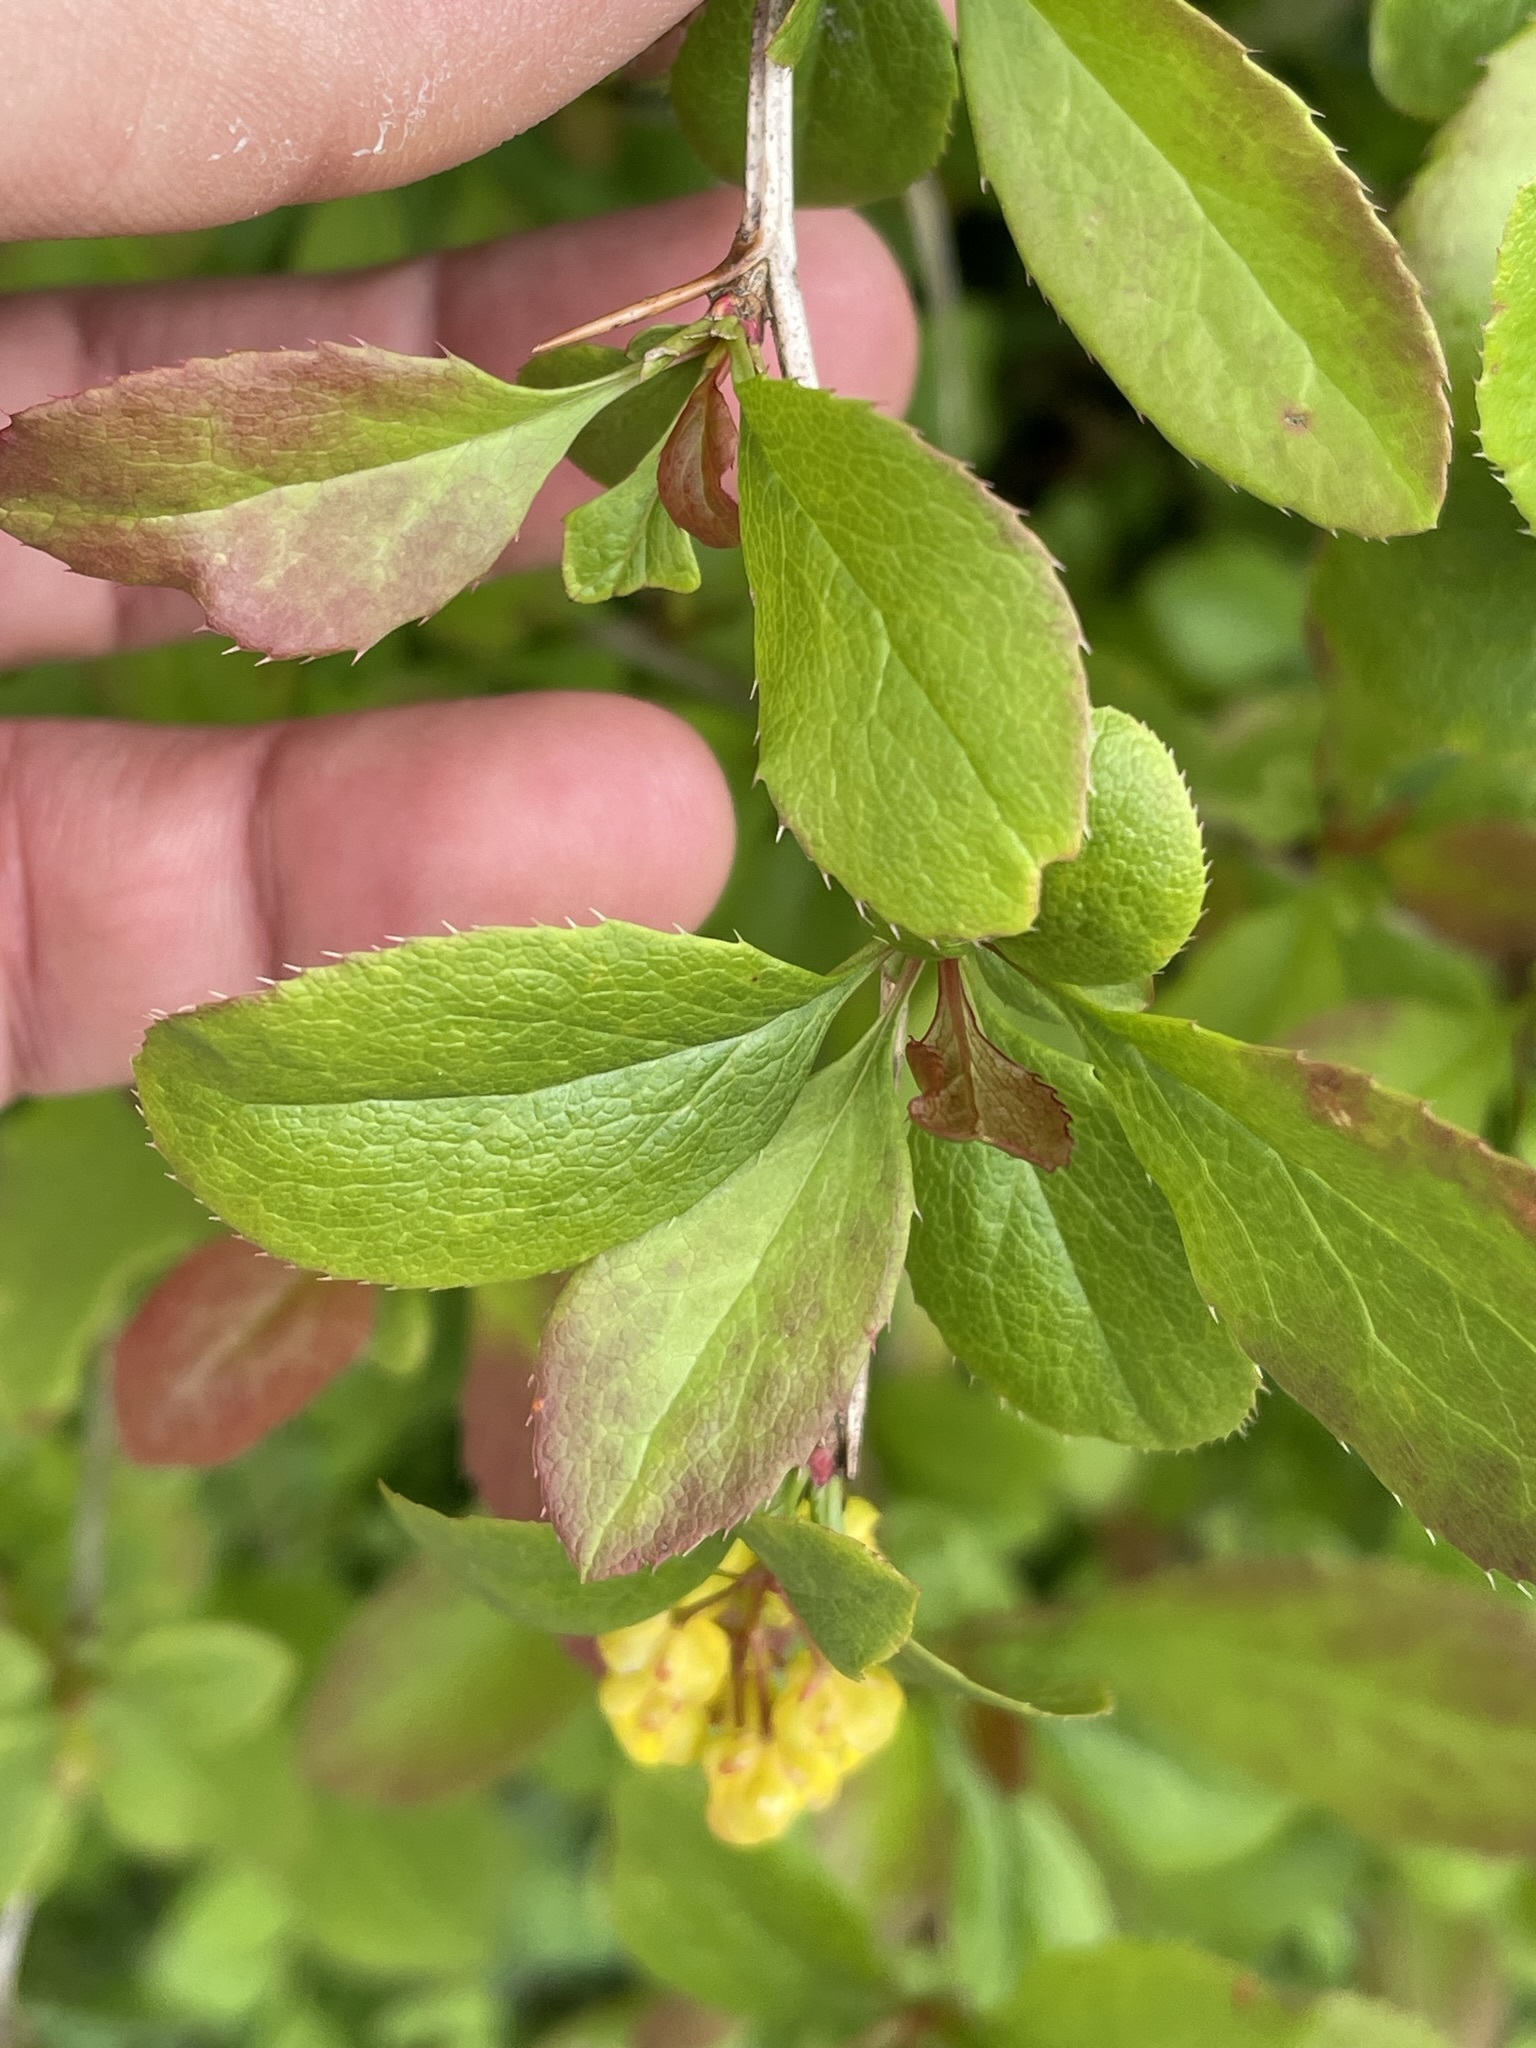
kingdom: Plantae
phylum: Tracheophyta
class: Magnoliopsida
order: Ranunculales
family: Berberidaceae
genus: Berberis
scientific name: Berberis vulgaris
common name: Barberry
